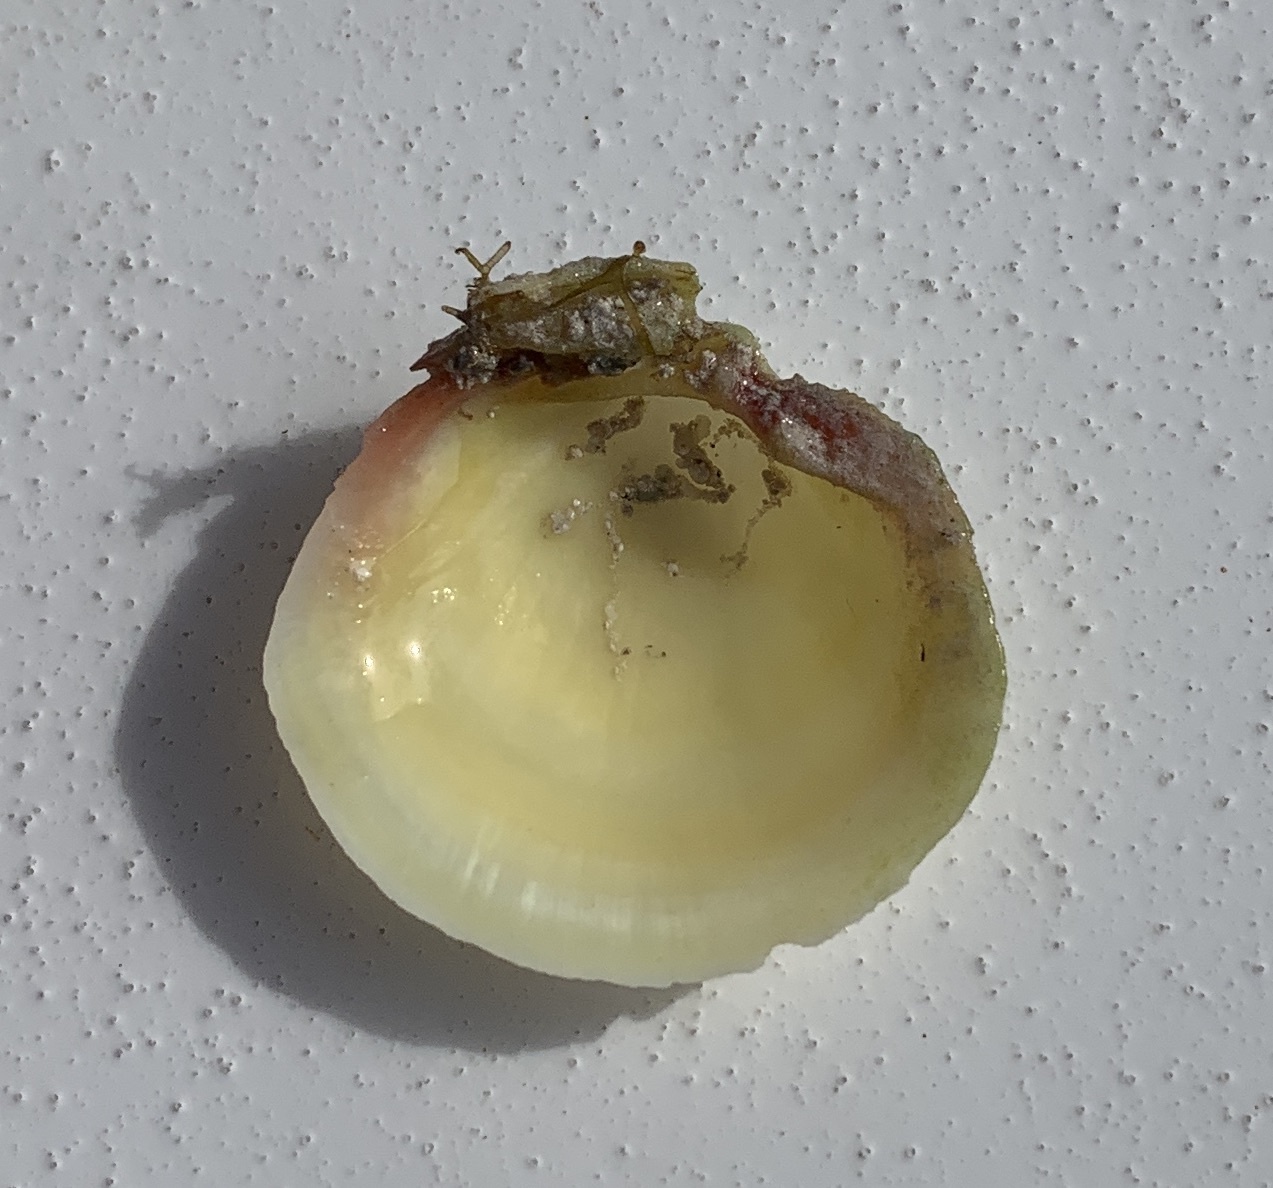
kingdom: Animalia
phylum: Mollusca
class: Bivalvia
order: Lucinida
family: Lucinidae
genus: Codakia
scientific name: Codakia orbicularis
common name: Tiger lucine
